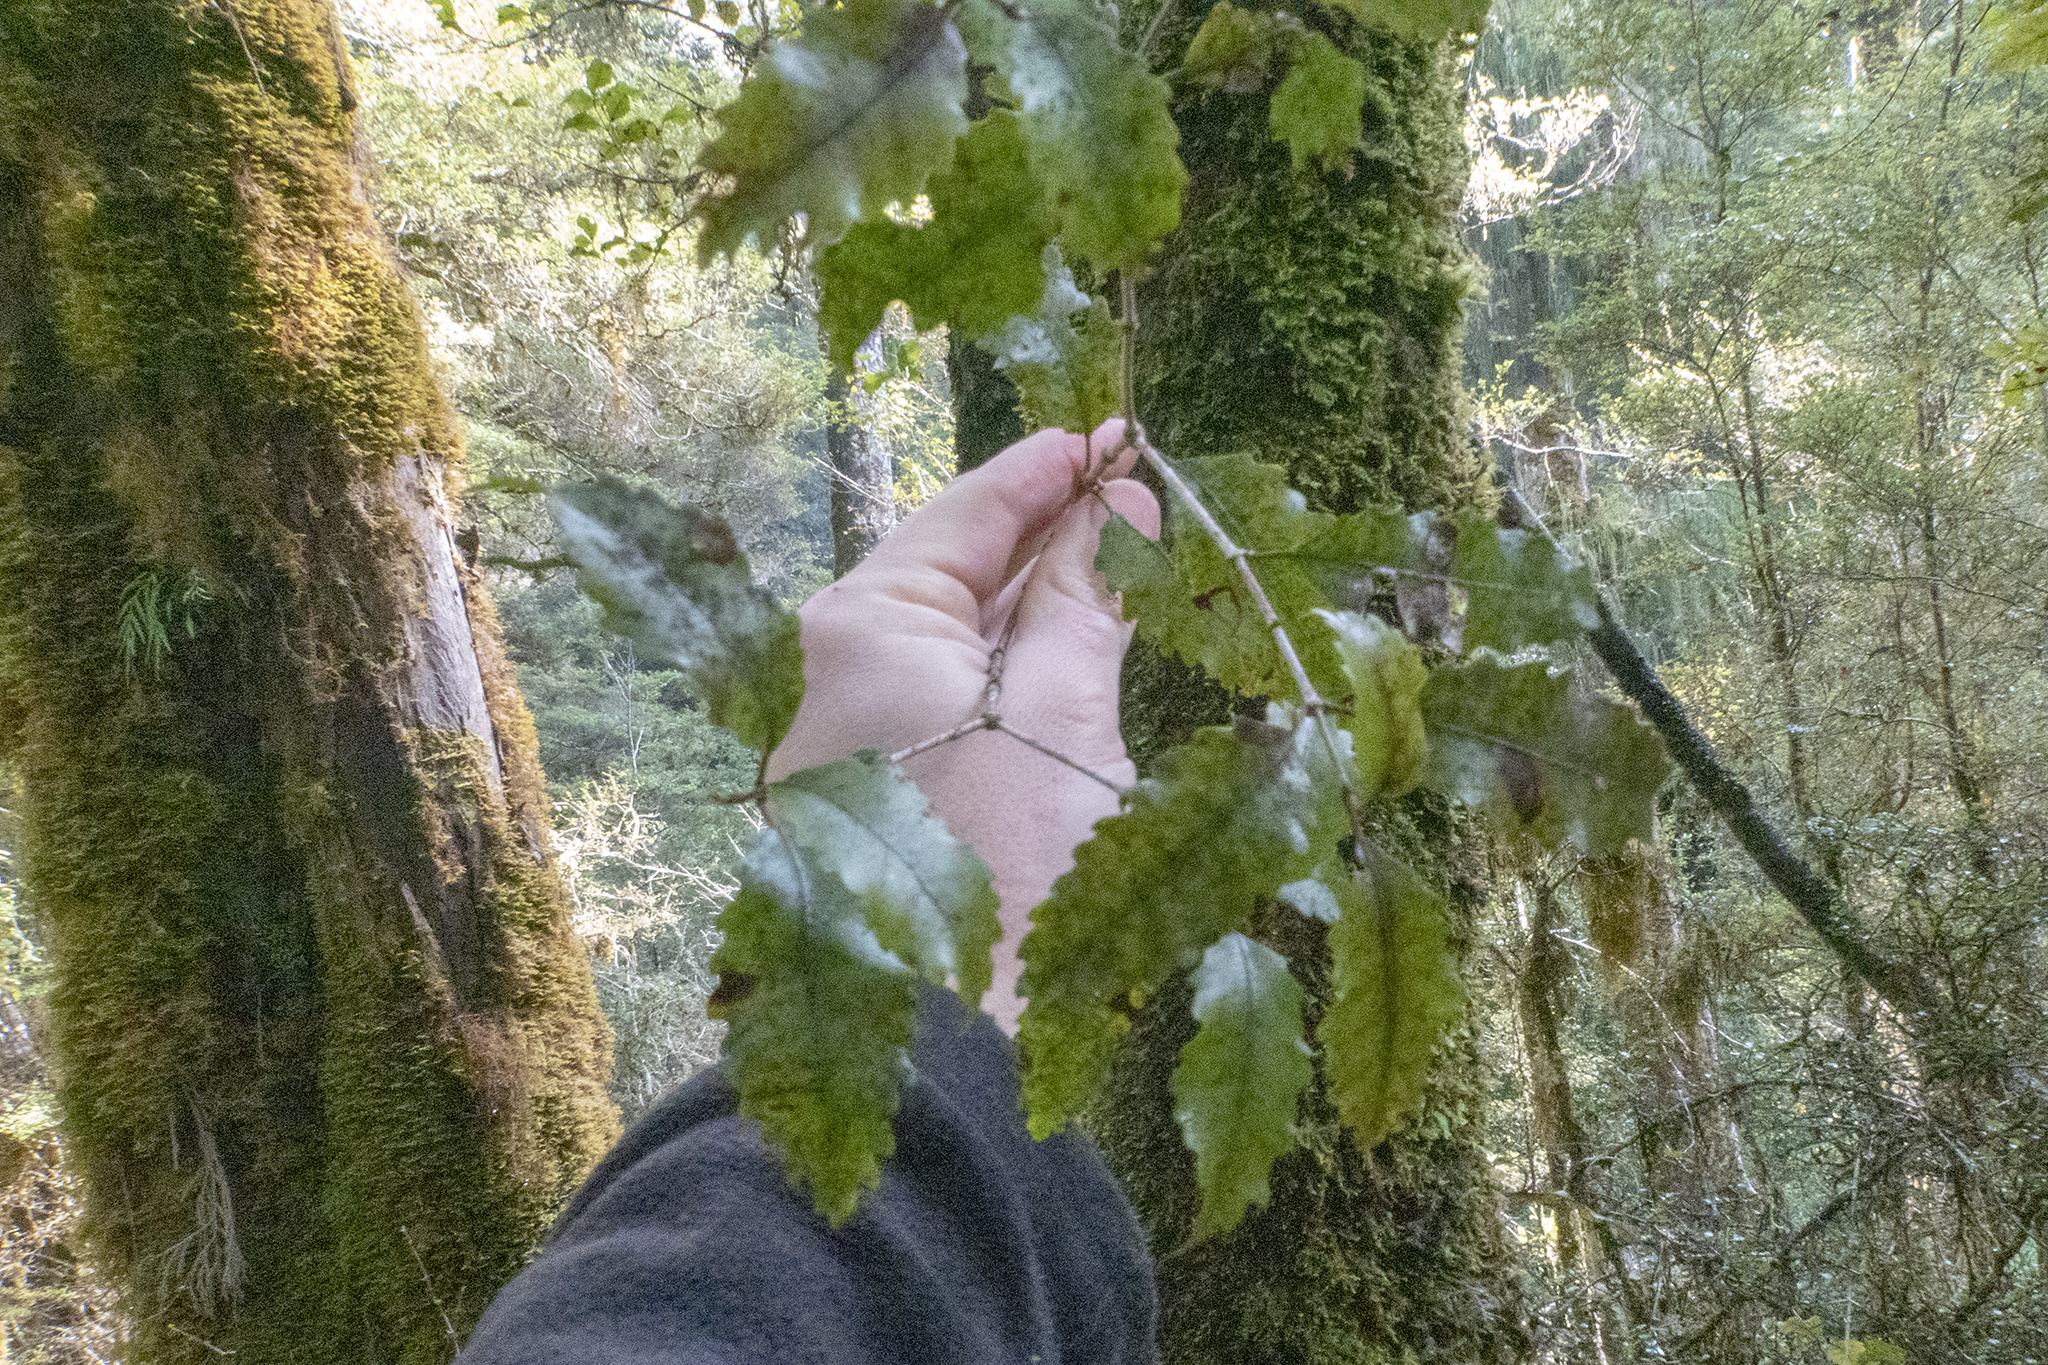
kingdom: Plantae
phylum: Tracheophyta
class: Magnoliopsida
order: Oxalidales
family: Cunoniaceae
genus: Pterophylla
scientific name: Pterophylla racemosa
